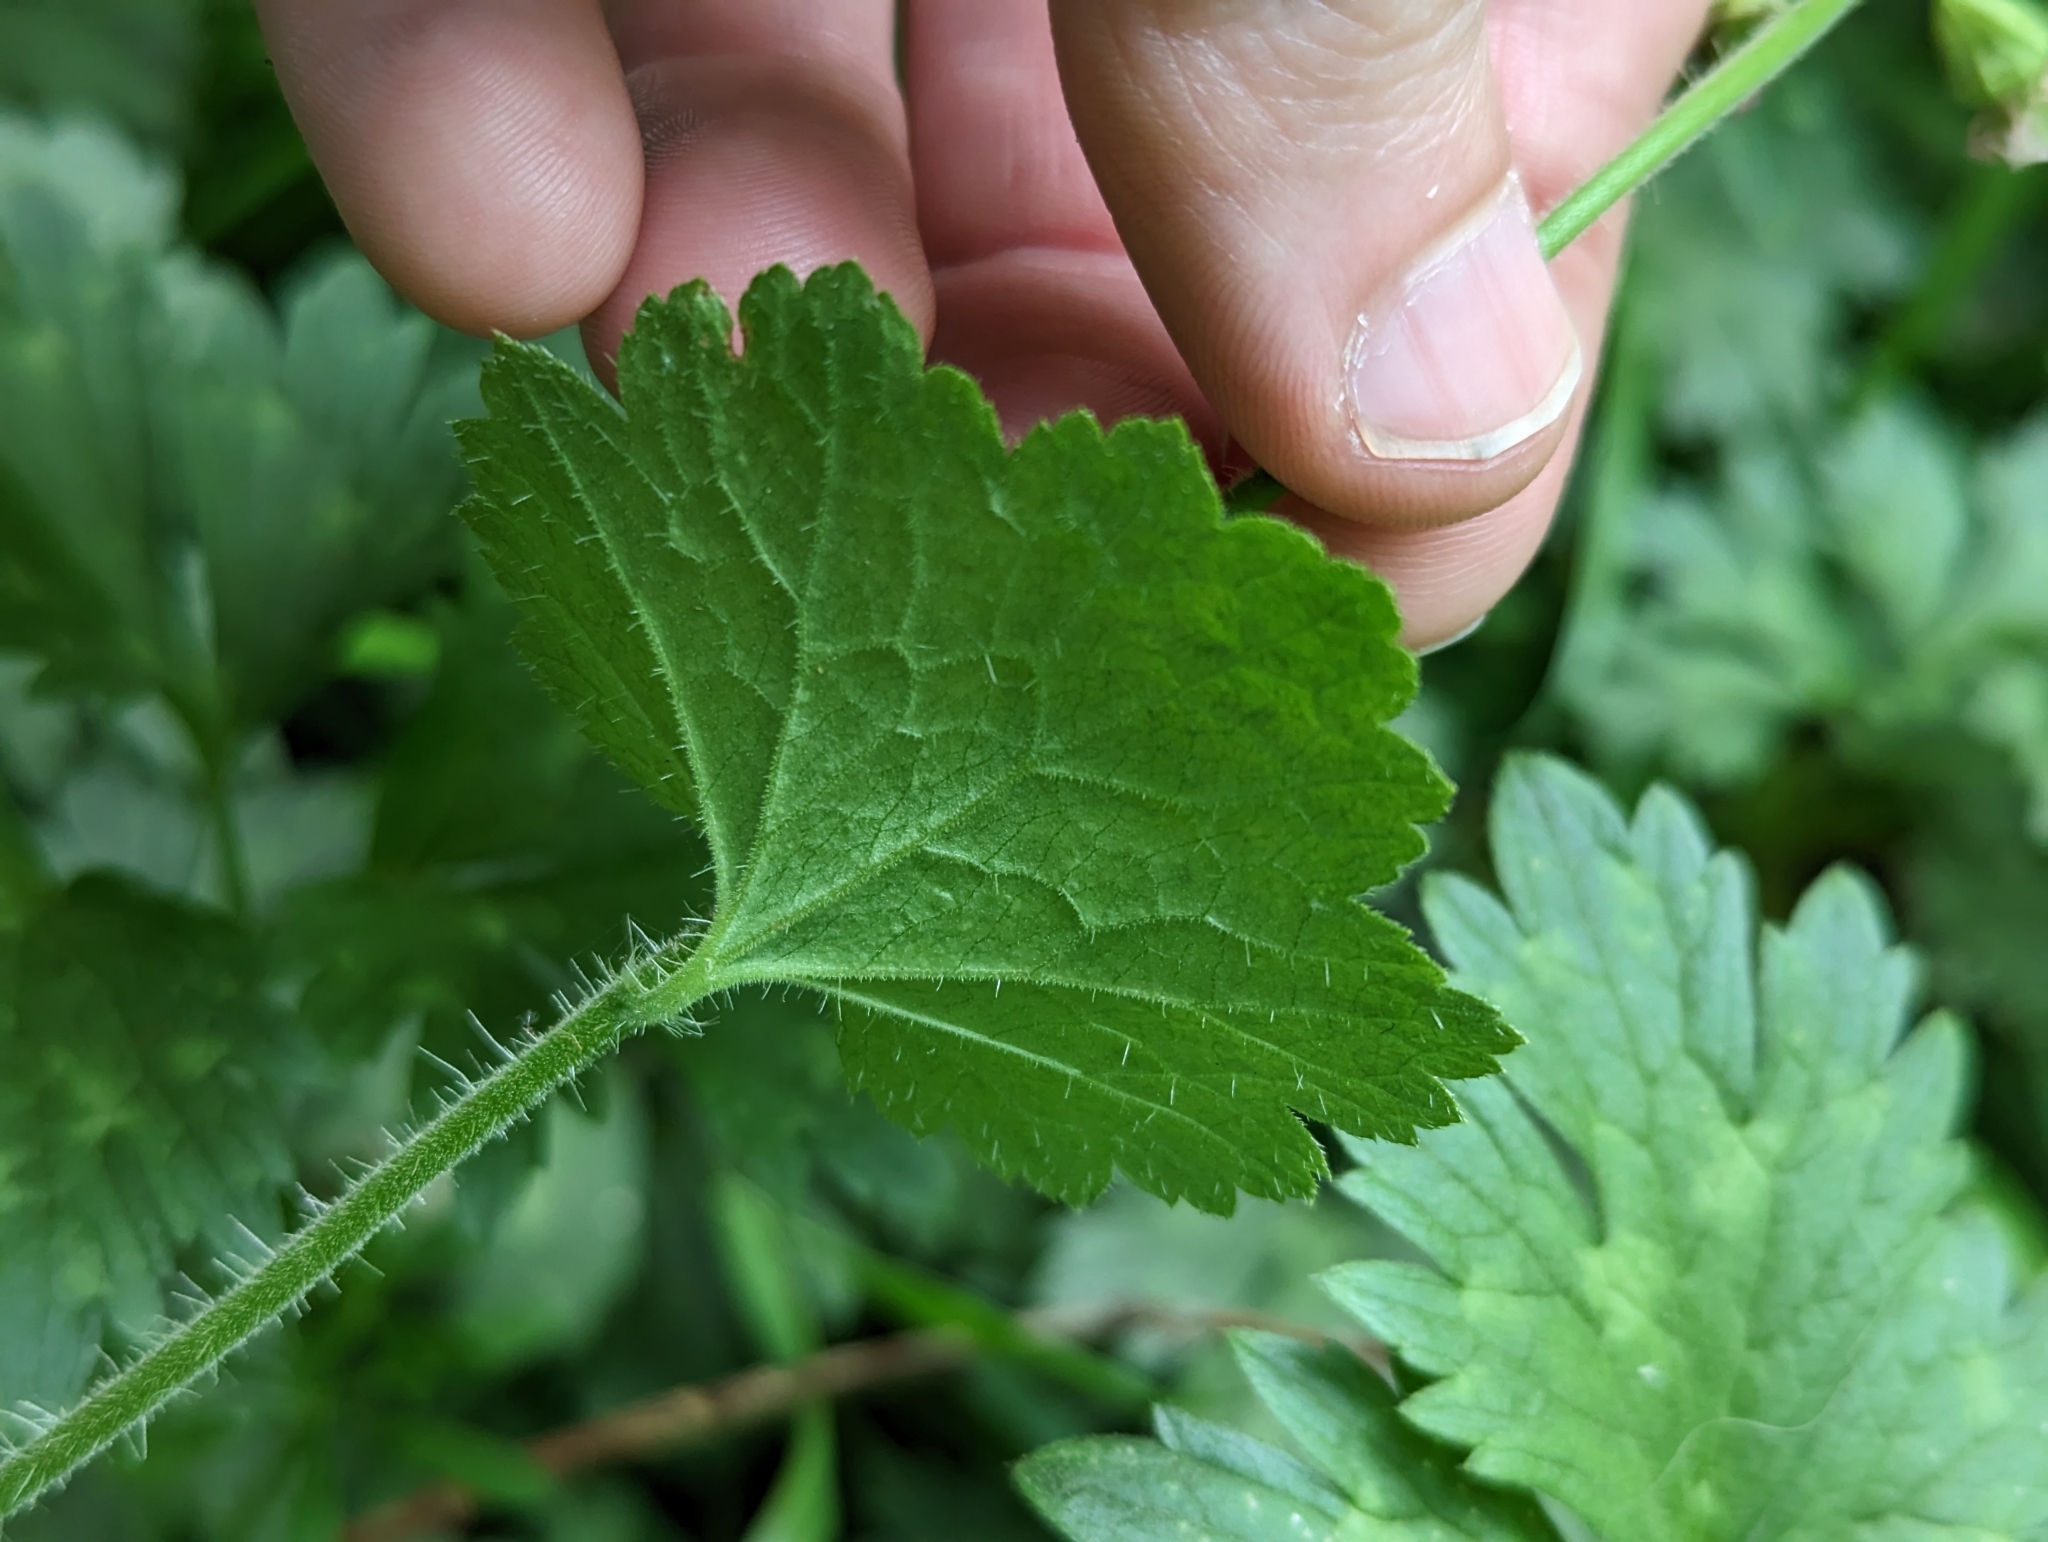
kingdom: Plantae
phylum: Tracheophyta
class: Magnoliopsida
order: Saxifragales
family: Saxifragaceae
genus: Tellima
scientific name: Tellima grandiflora
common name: Fringecups
